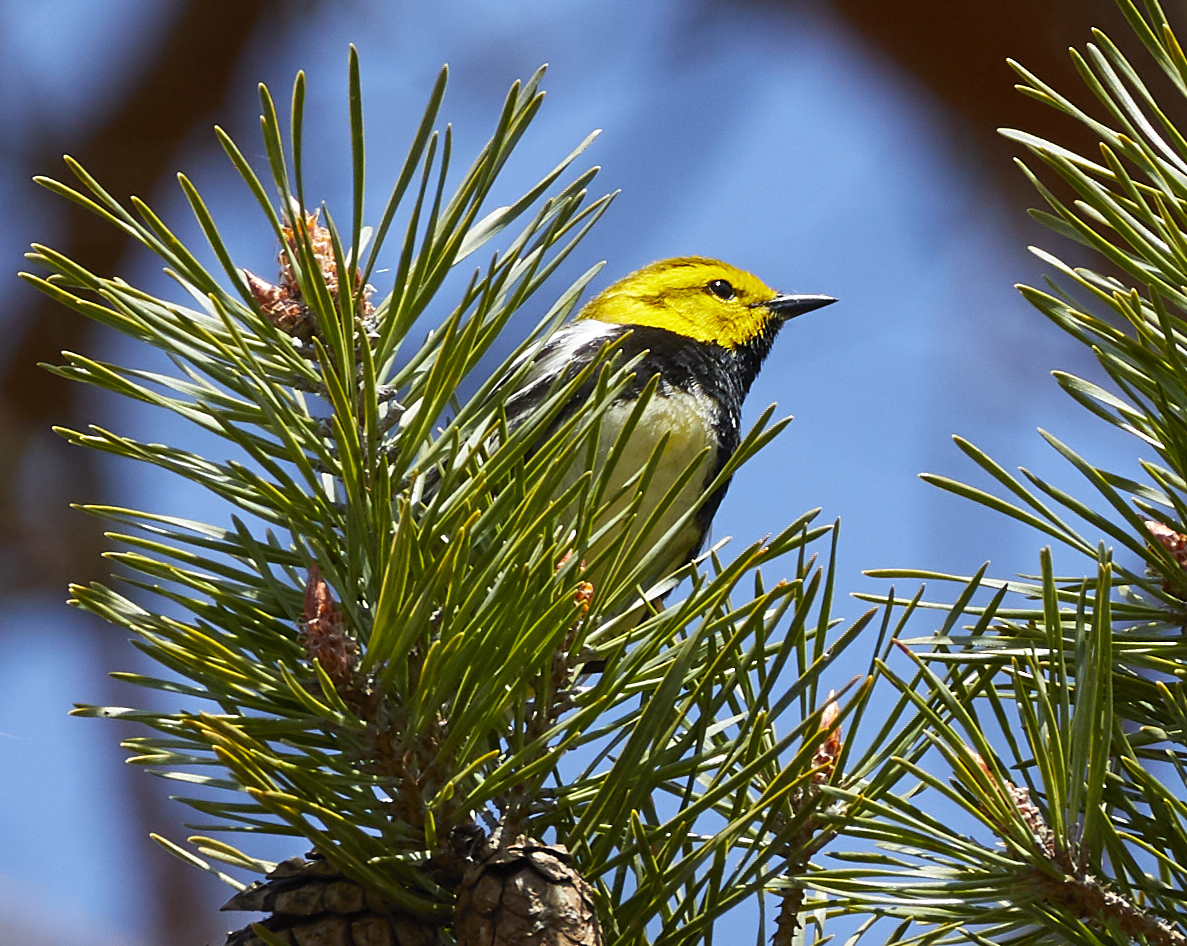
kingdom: Animalia
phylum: Chordata
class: Aves
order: Passeriformes
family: Parulidae
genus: Setophaga
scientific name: Setophaga virens
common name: Black-throated green warbler
